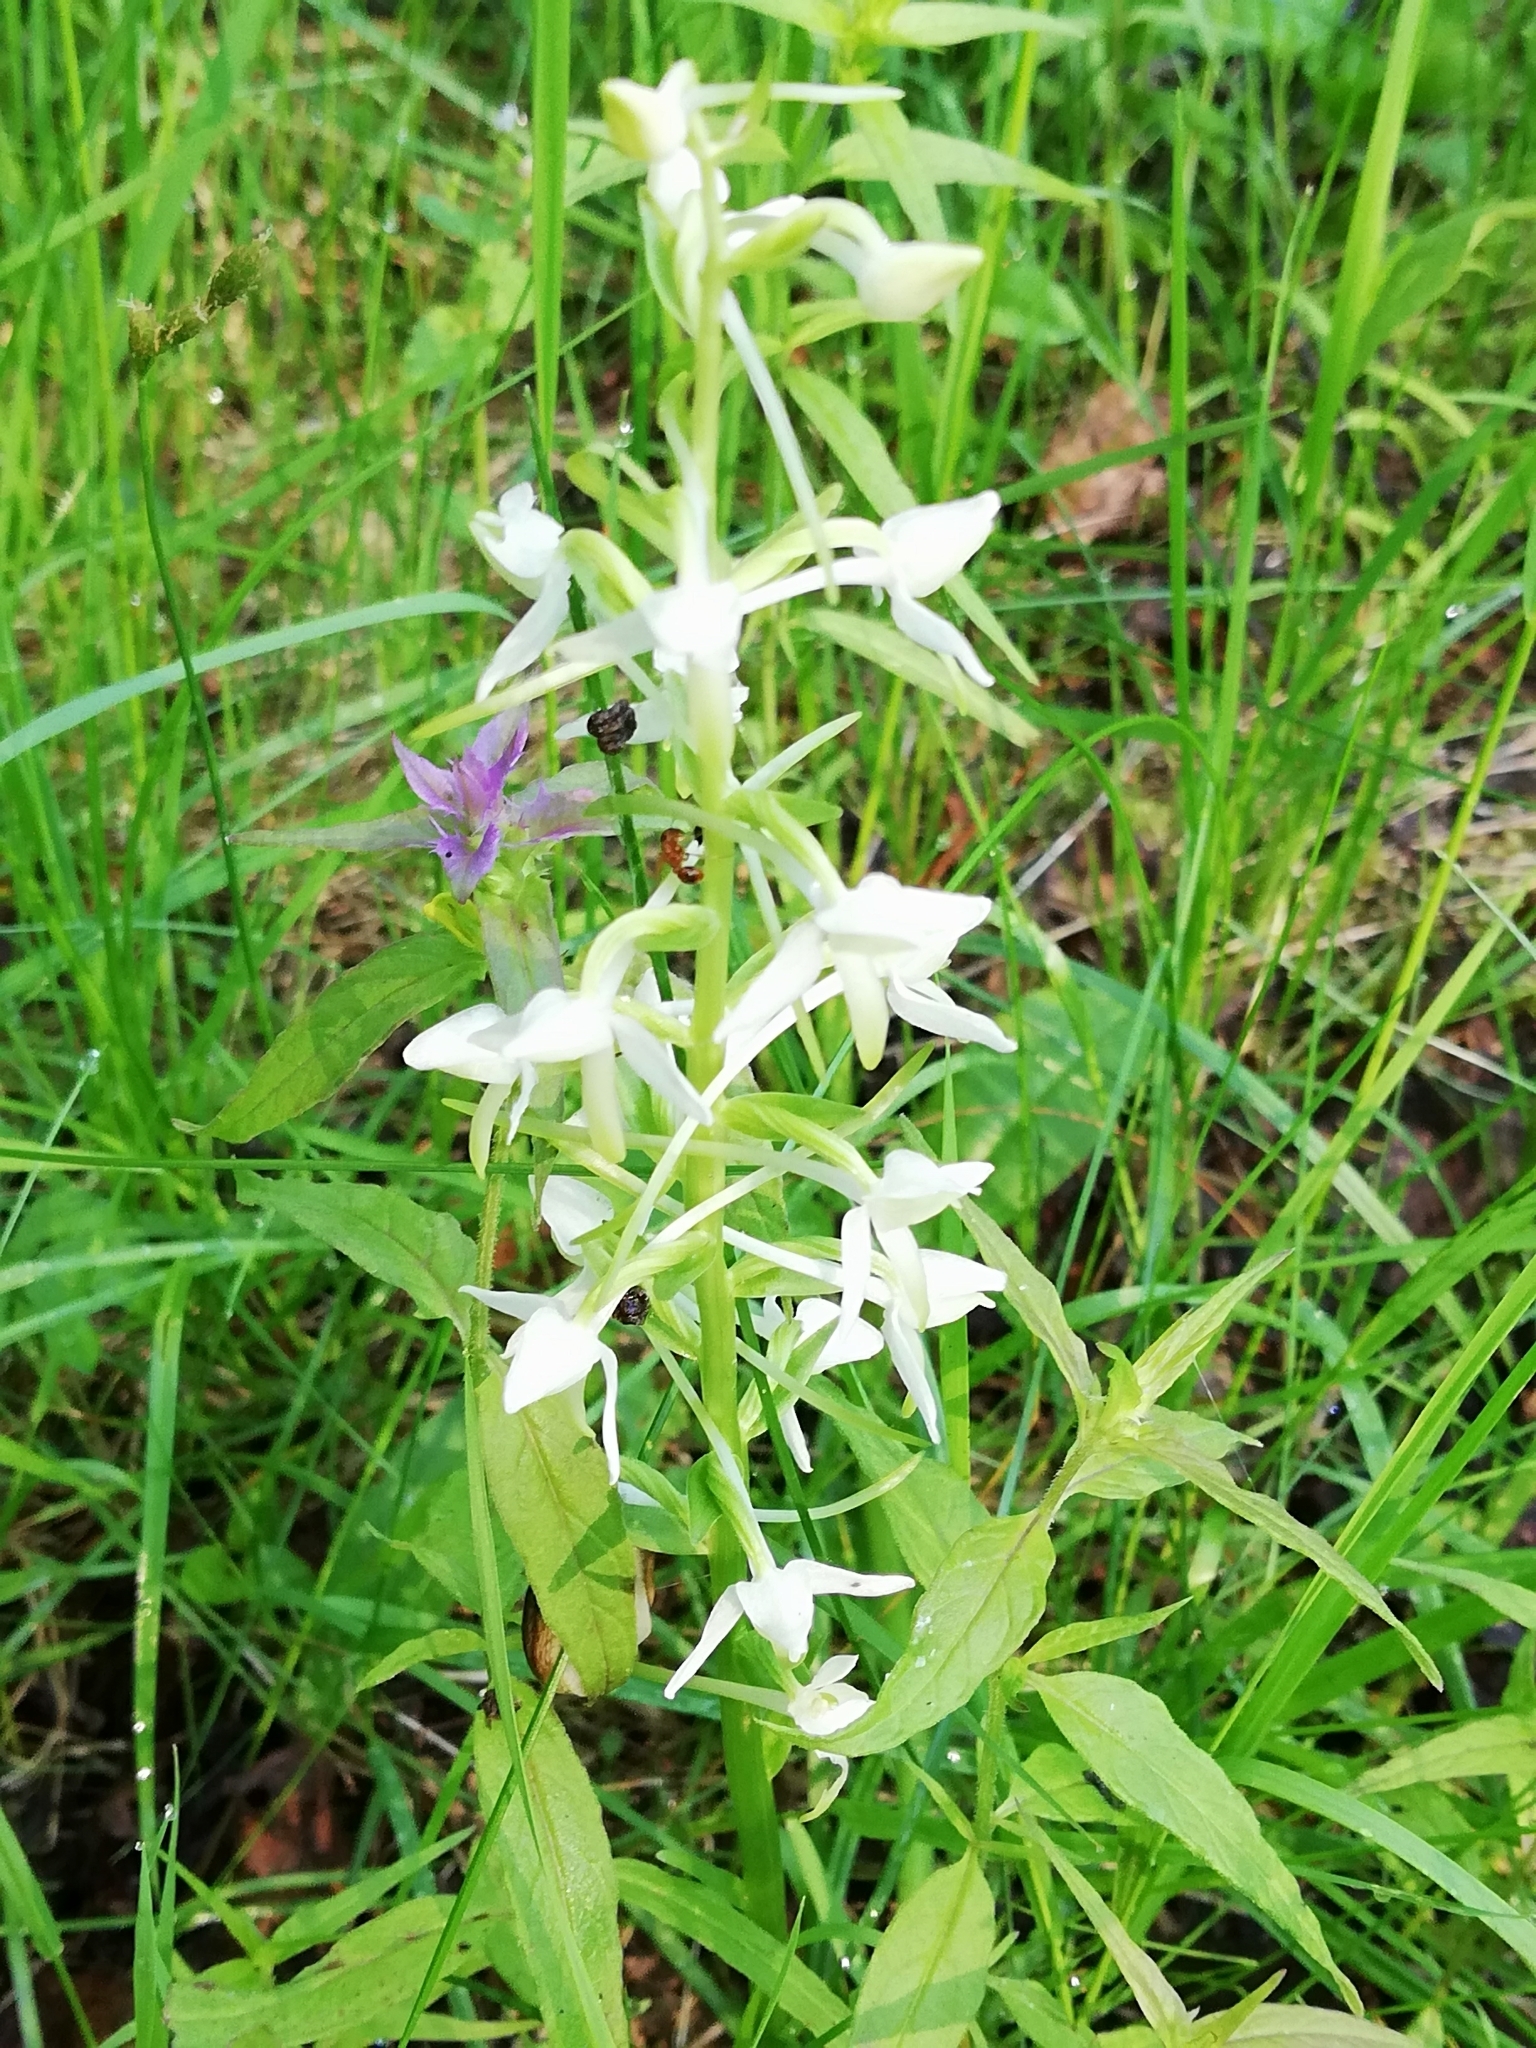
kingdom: Plantae
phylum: Tracheophyta
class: Liliopsida
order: Asparagales
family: Orchidaceae
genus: Platanthera
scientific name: Platanthera bifolia
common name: Lesser butterfly-orchid
